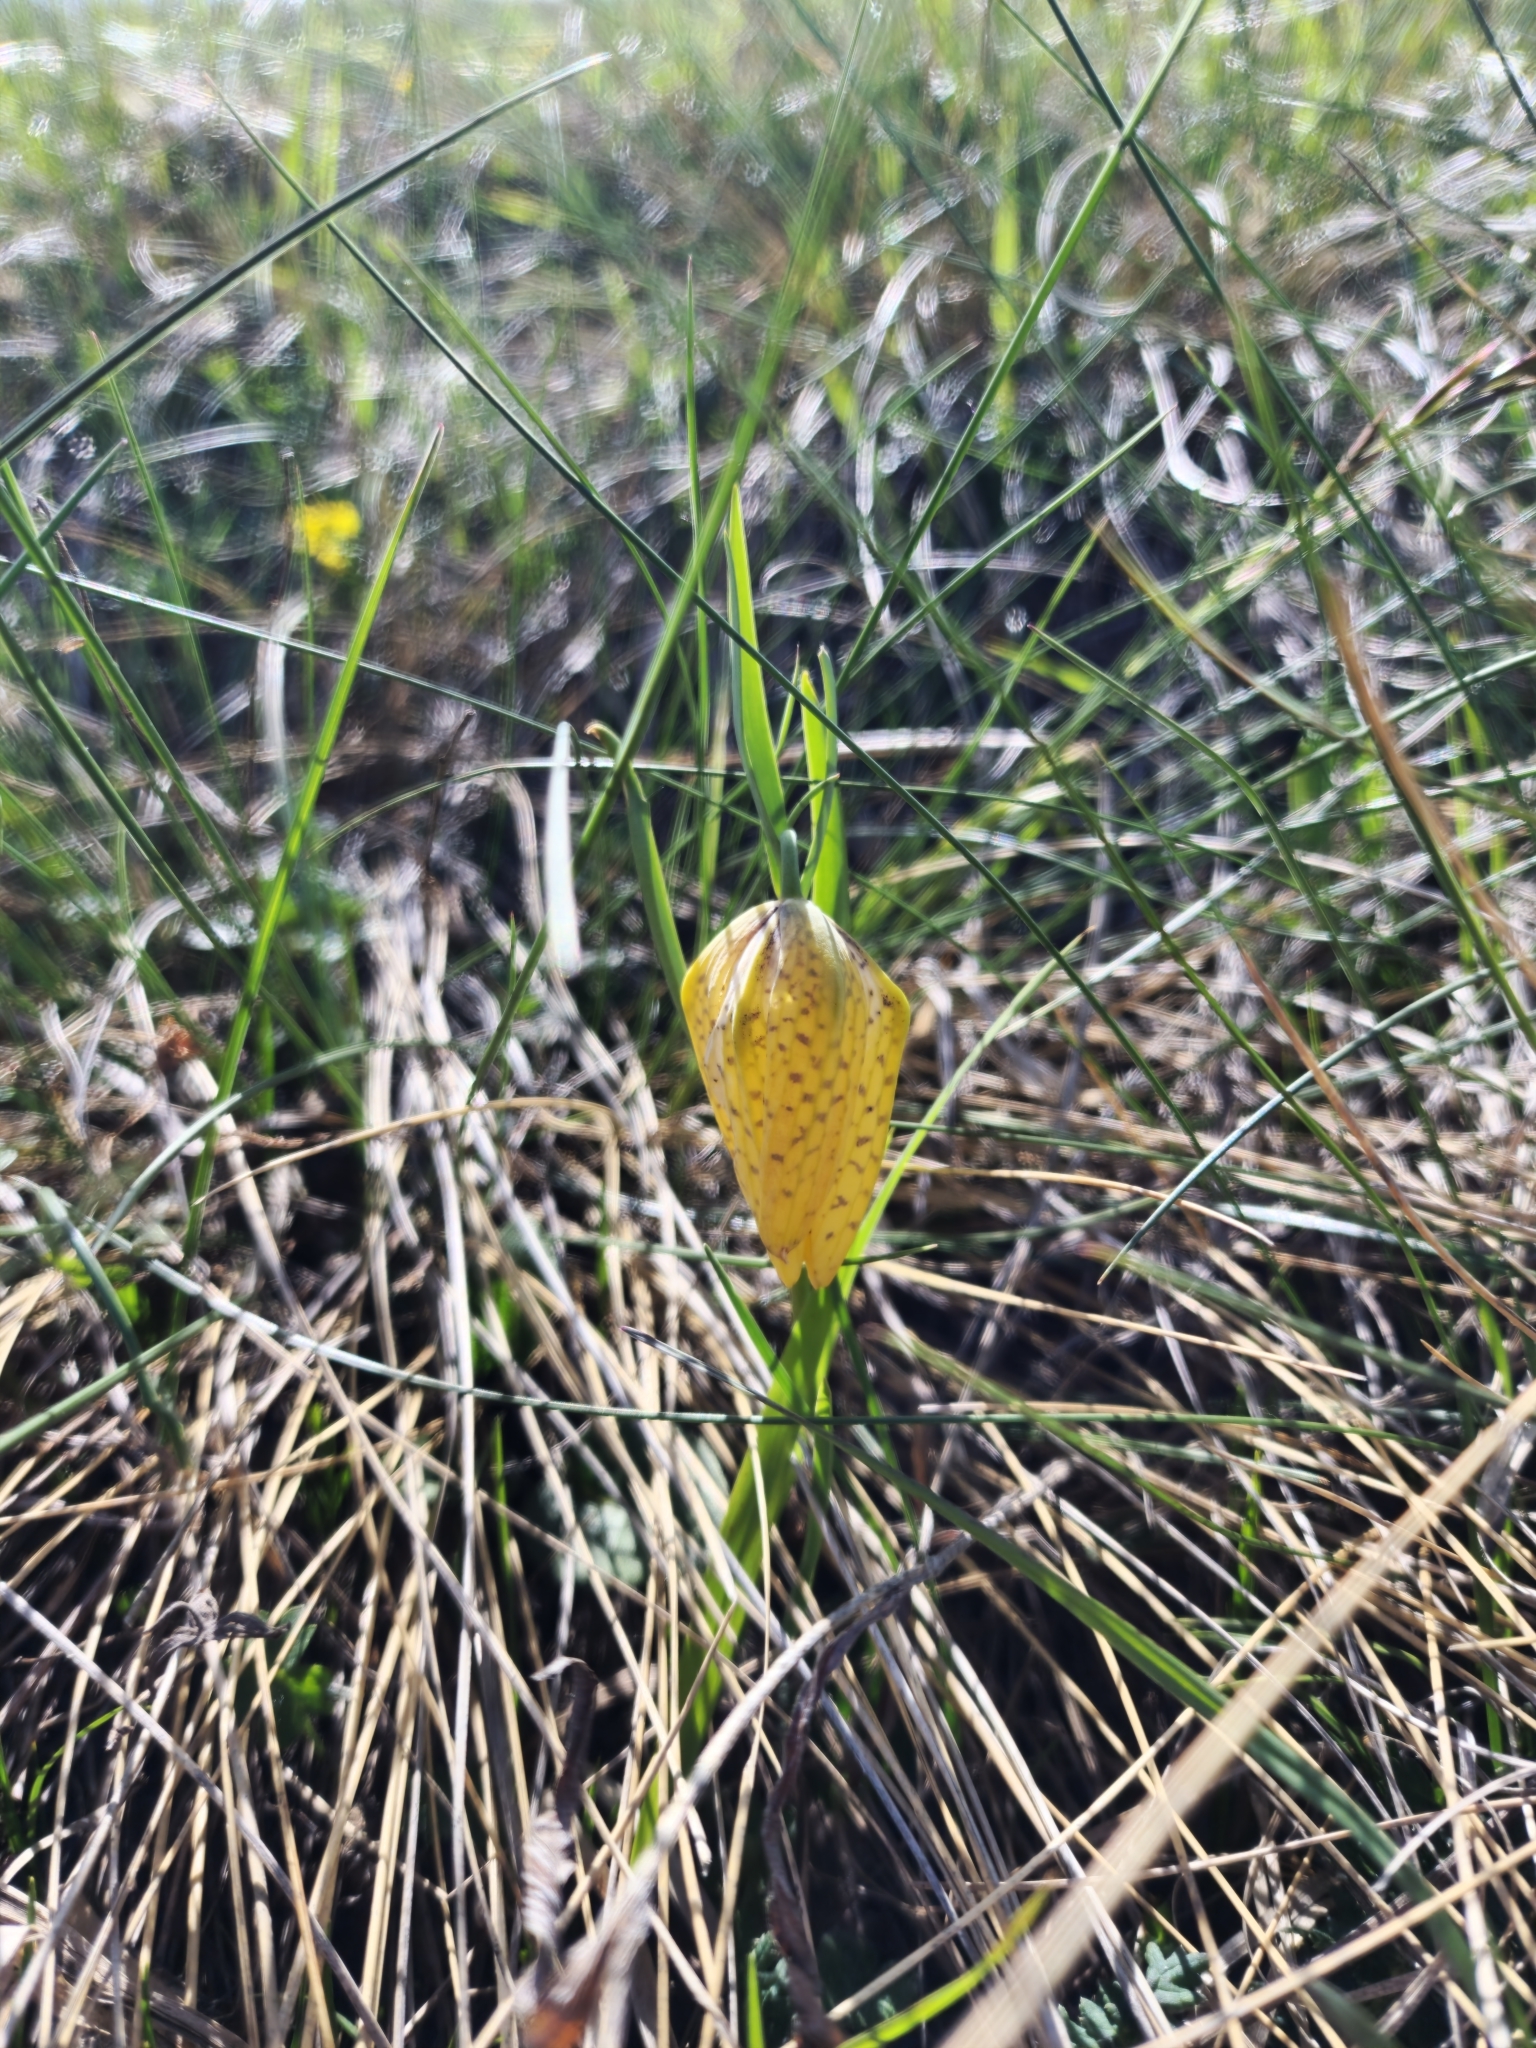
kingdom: Plantae
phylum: Tracheophyta
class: Liliopsida
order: Liliales
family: Liliaceae
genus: Fritillaria
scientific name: Fritillaria collina
